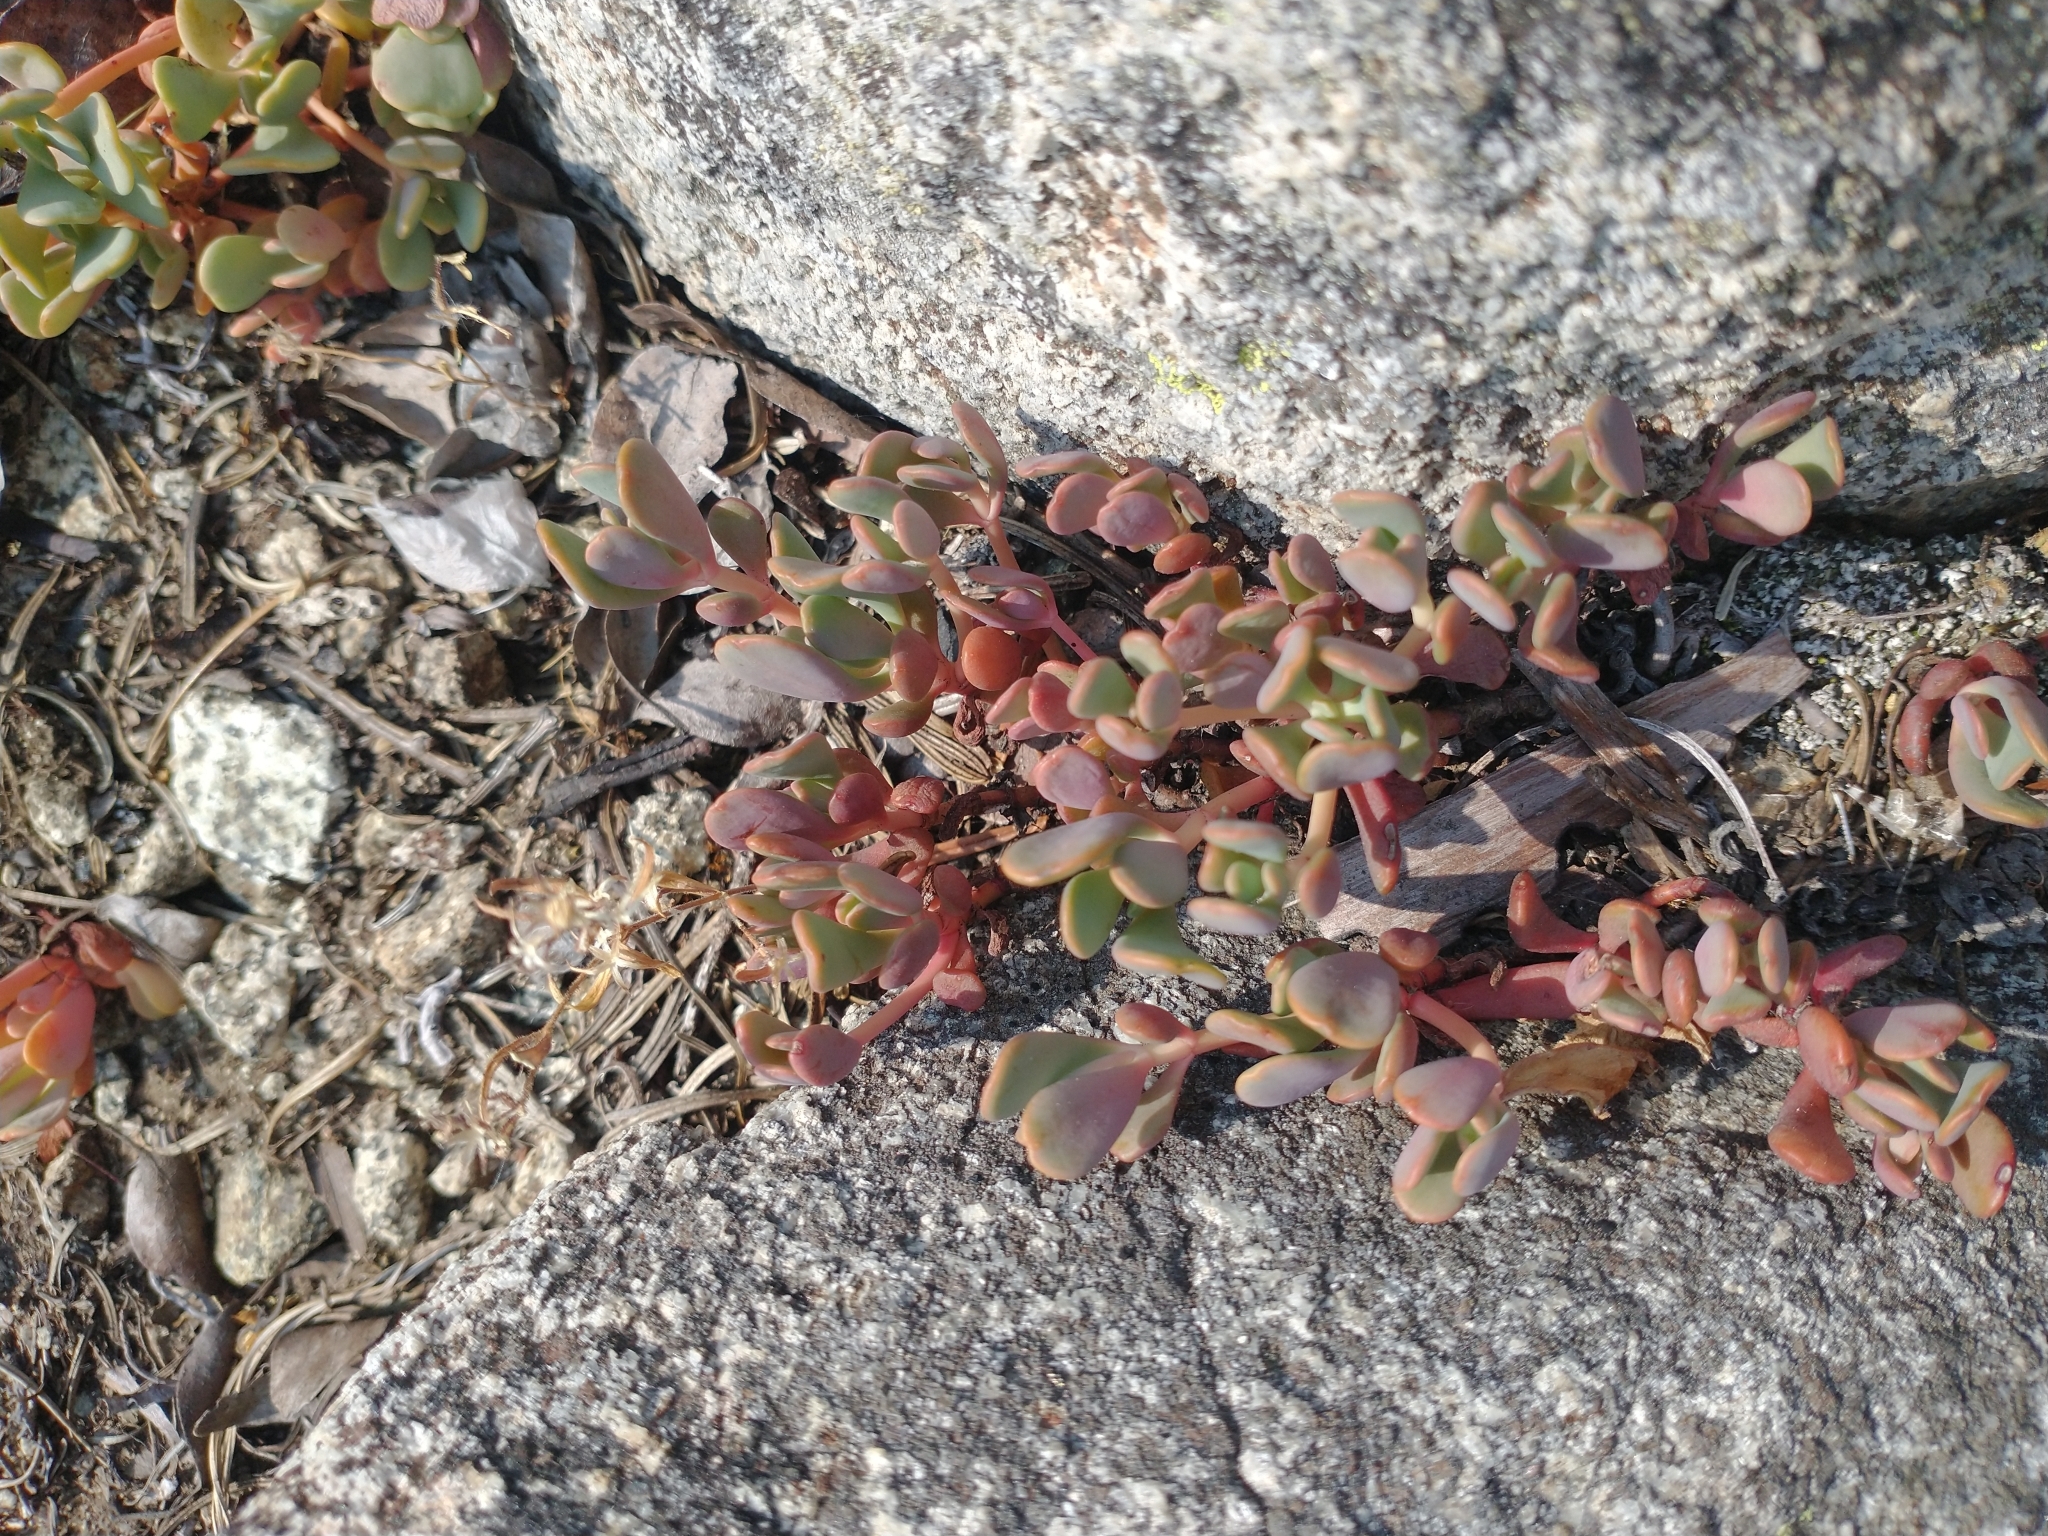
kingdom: Plantae
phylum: Tracheophyta
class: Magnoliopsida
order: Saxifragales
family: Crassulaceae
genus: Sedum
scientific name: Sedum
